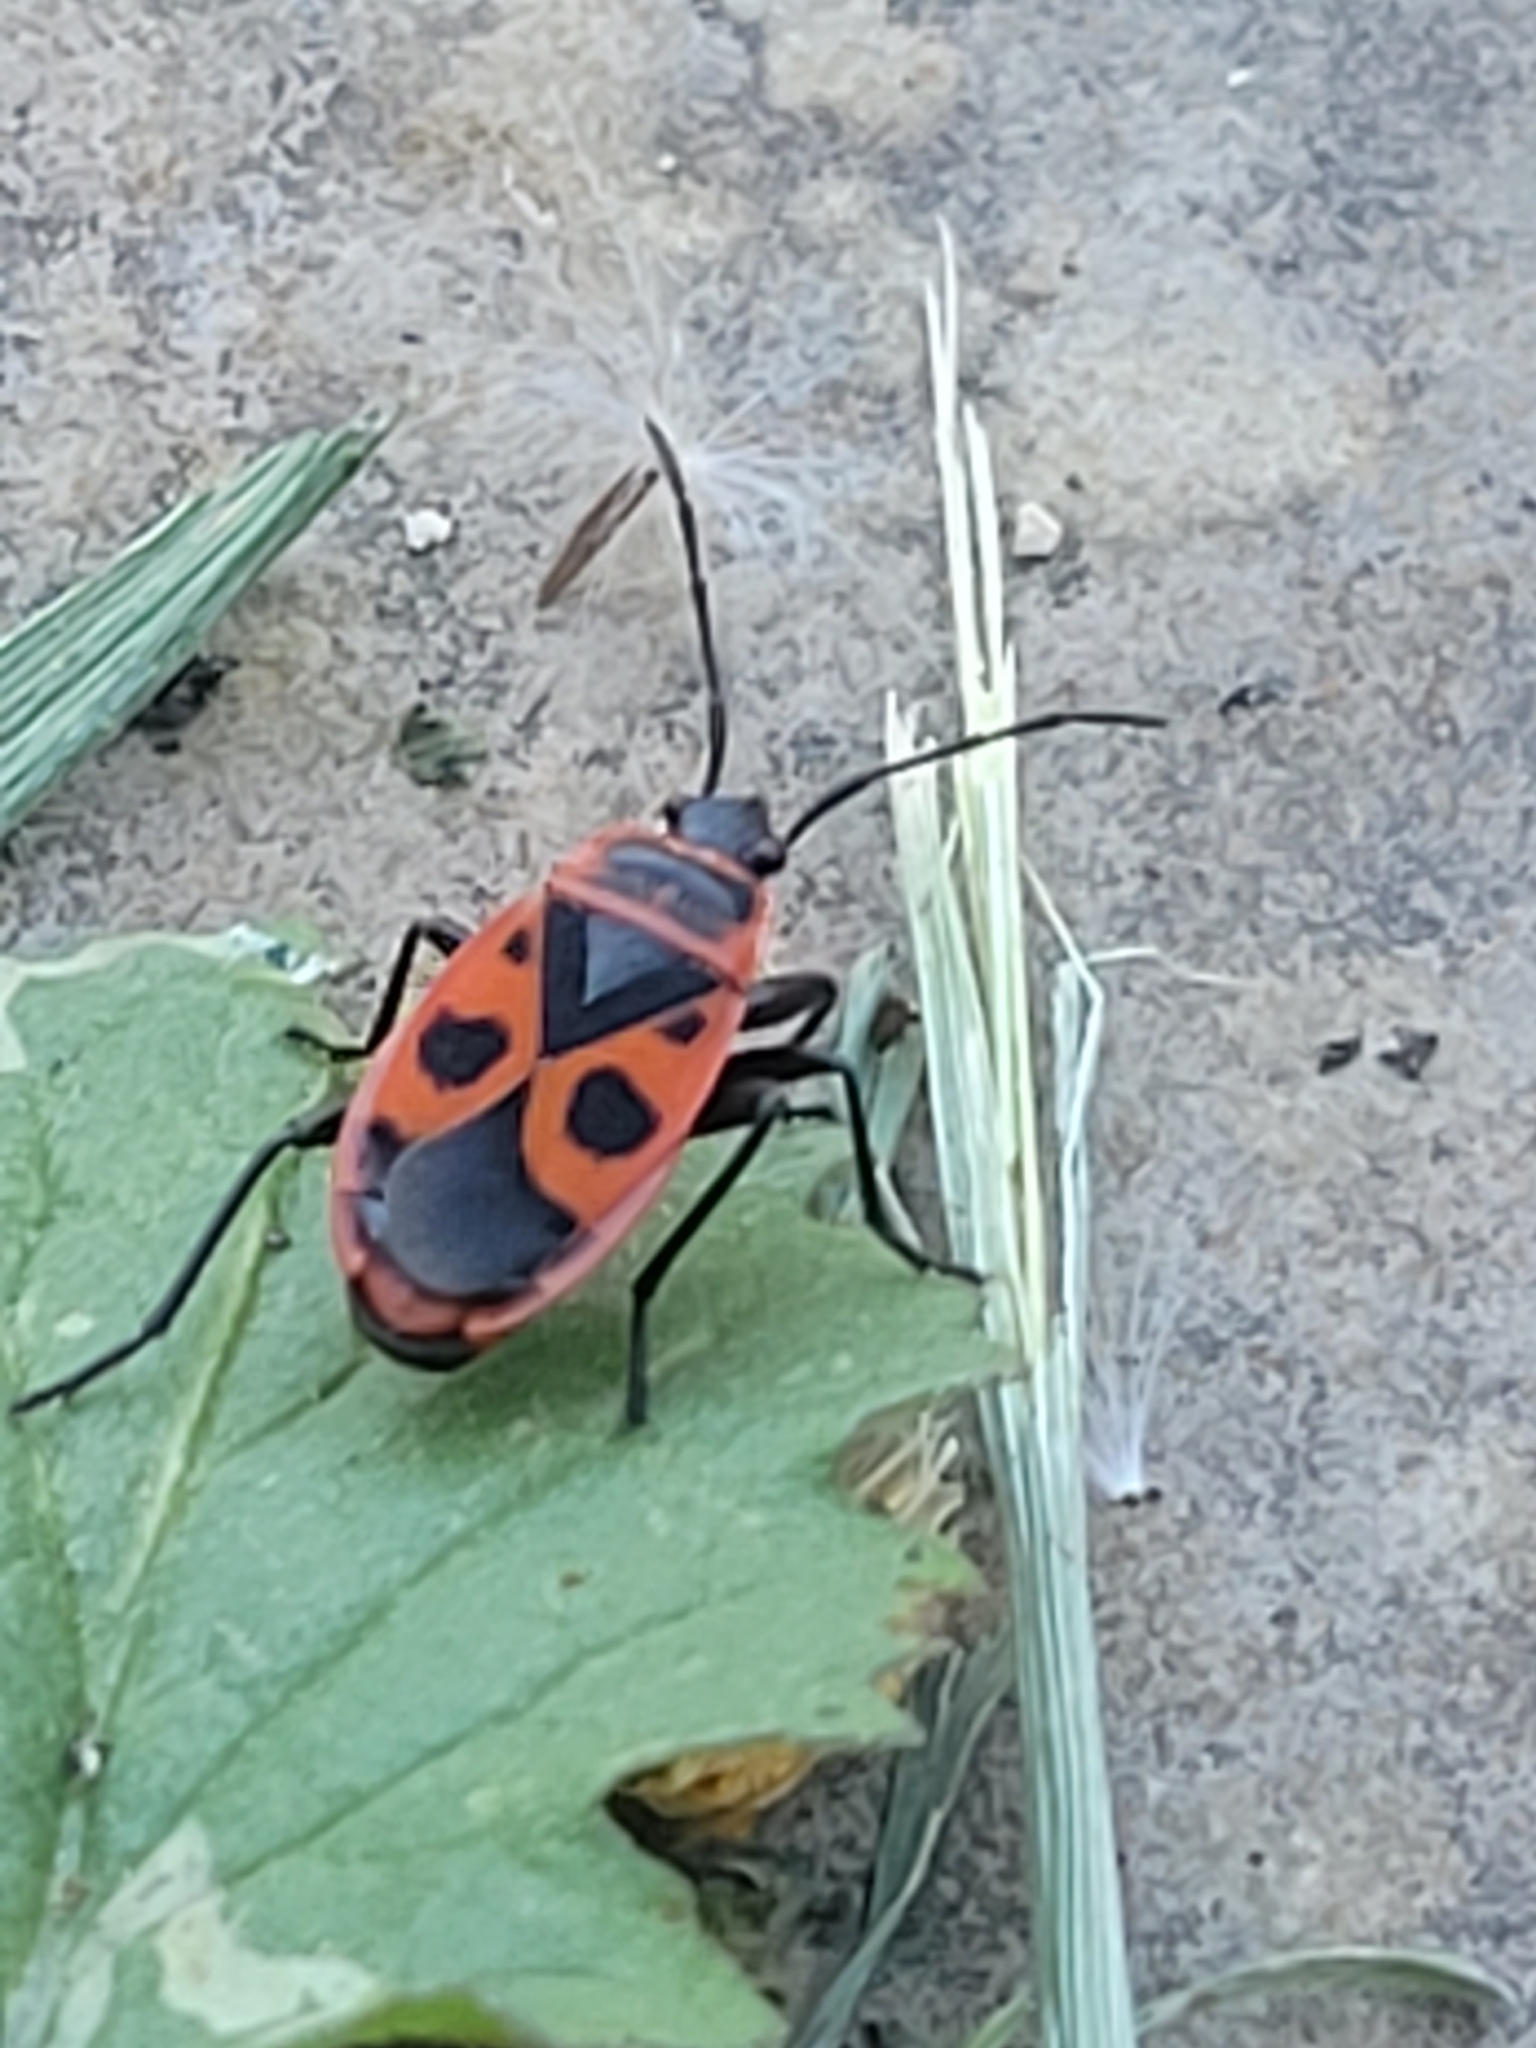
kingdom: Animalia
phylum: Arthropoda
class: Insecta
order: Hemiptera
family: Pyrrhocoridae
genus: Pyrrhocoris
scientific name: Pyrrhocoris apterus
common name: Firebug
